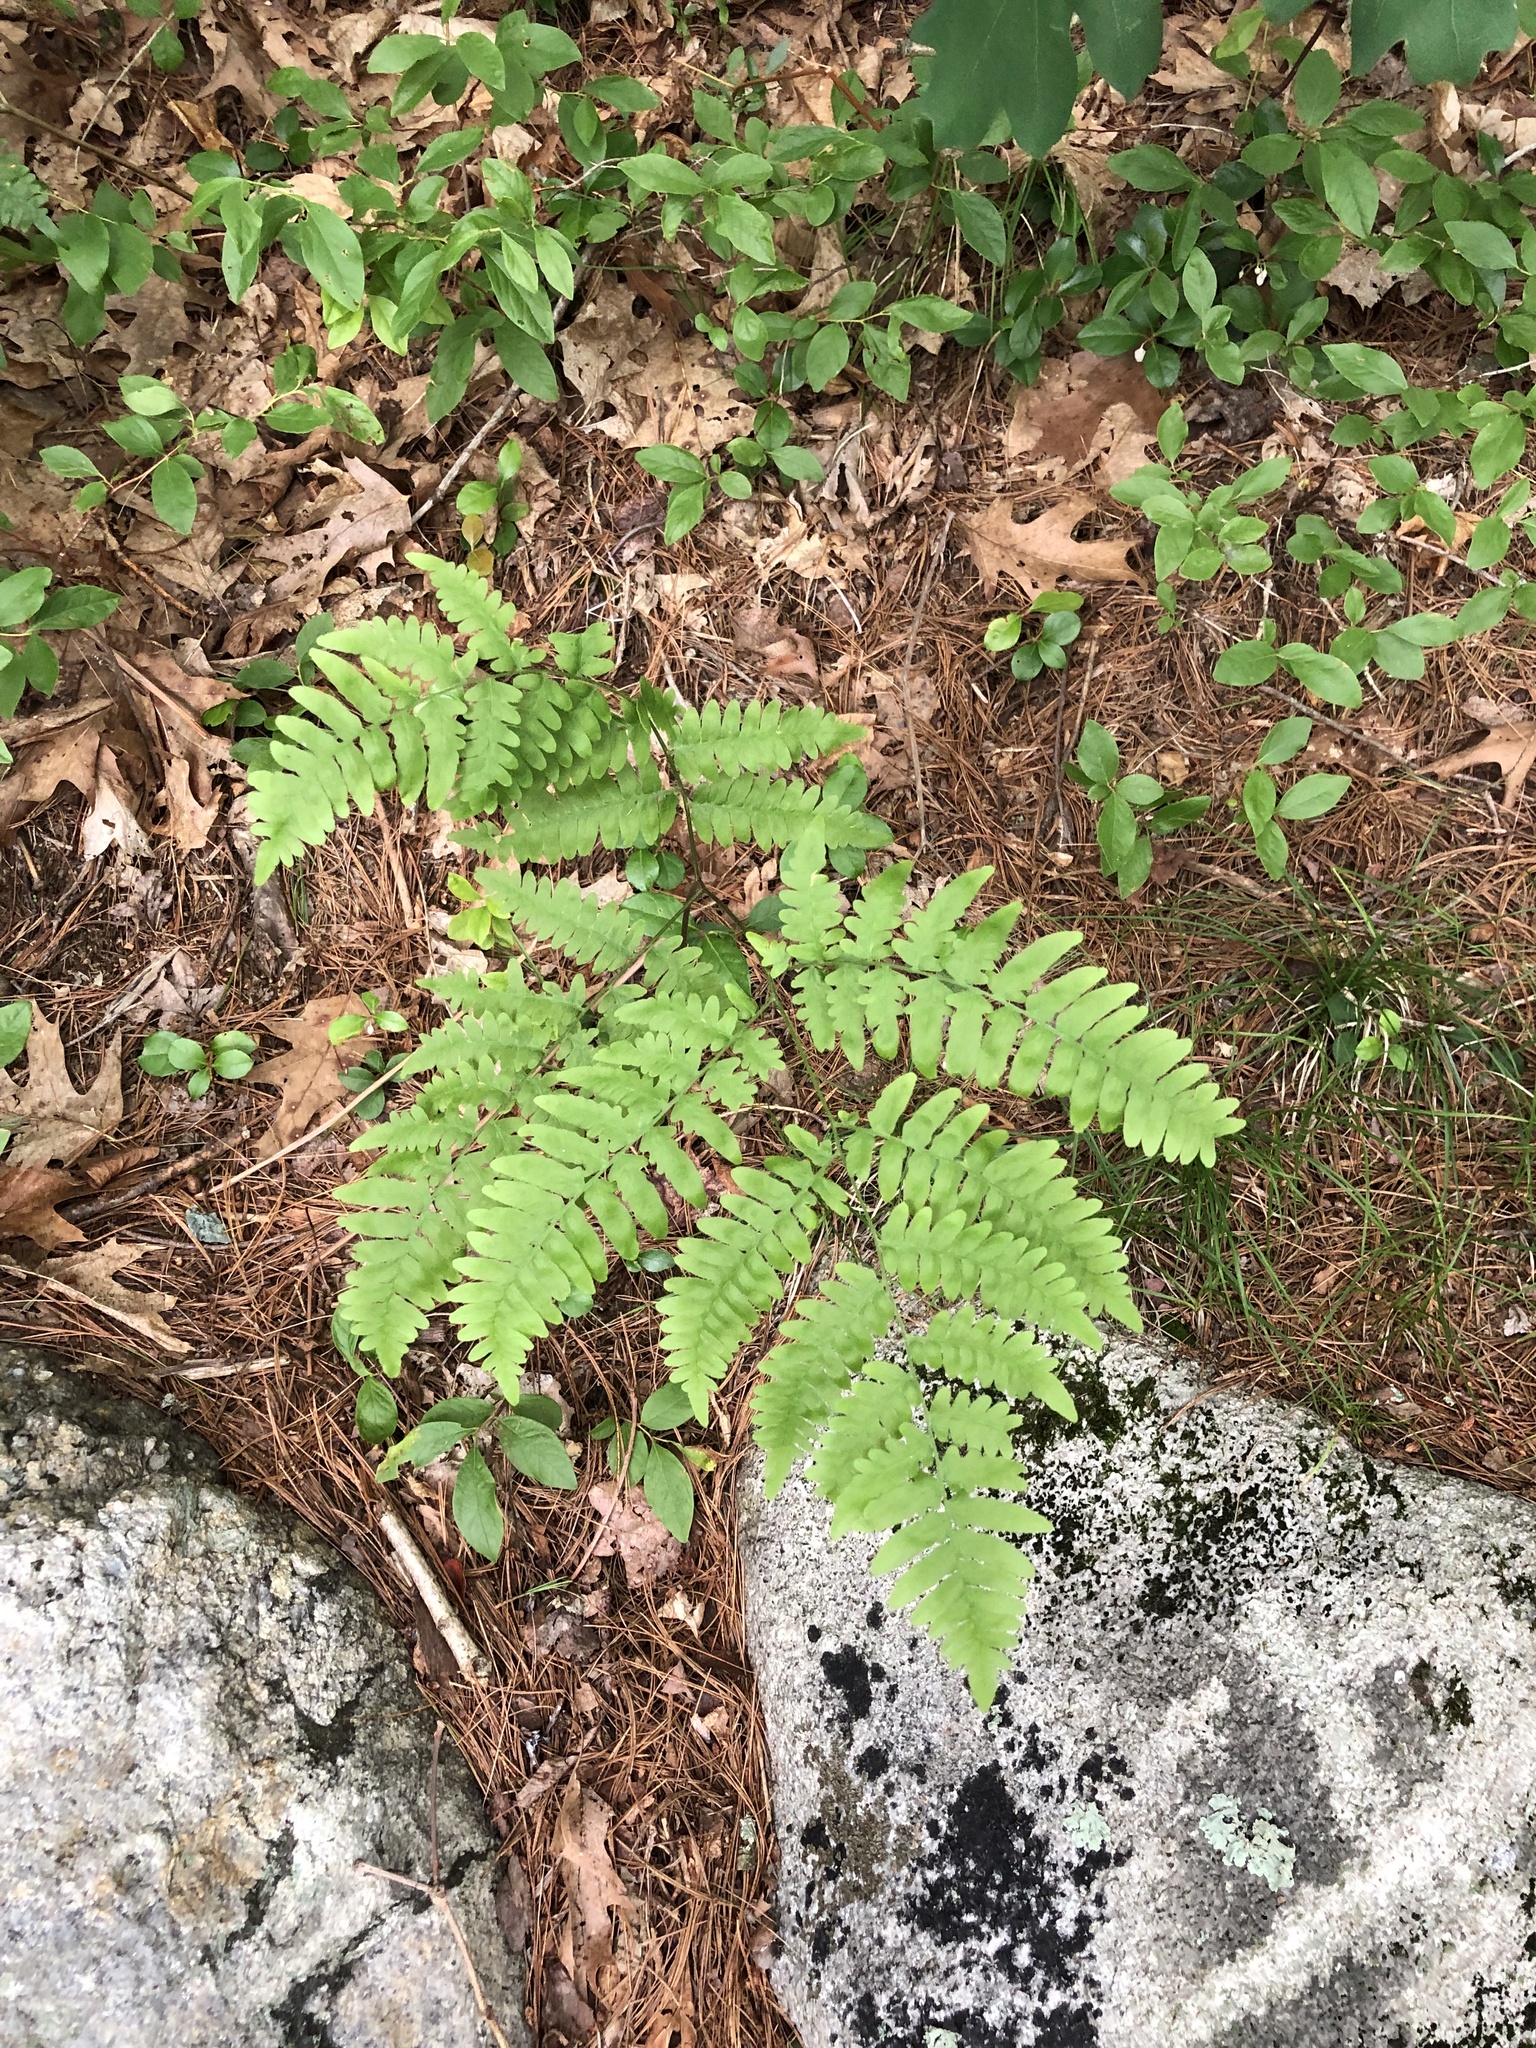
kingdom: Plantae
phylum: Tracheophyta
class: Polypodiopsida
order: Polypodiales
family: Dennstaedtiaceae
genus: Pteridium
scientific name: Pteridium aquilinum
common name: Bracken
